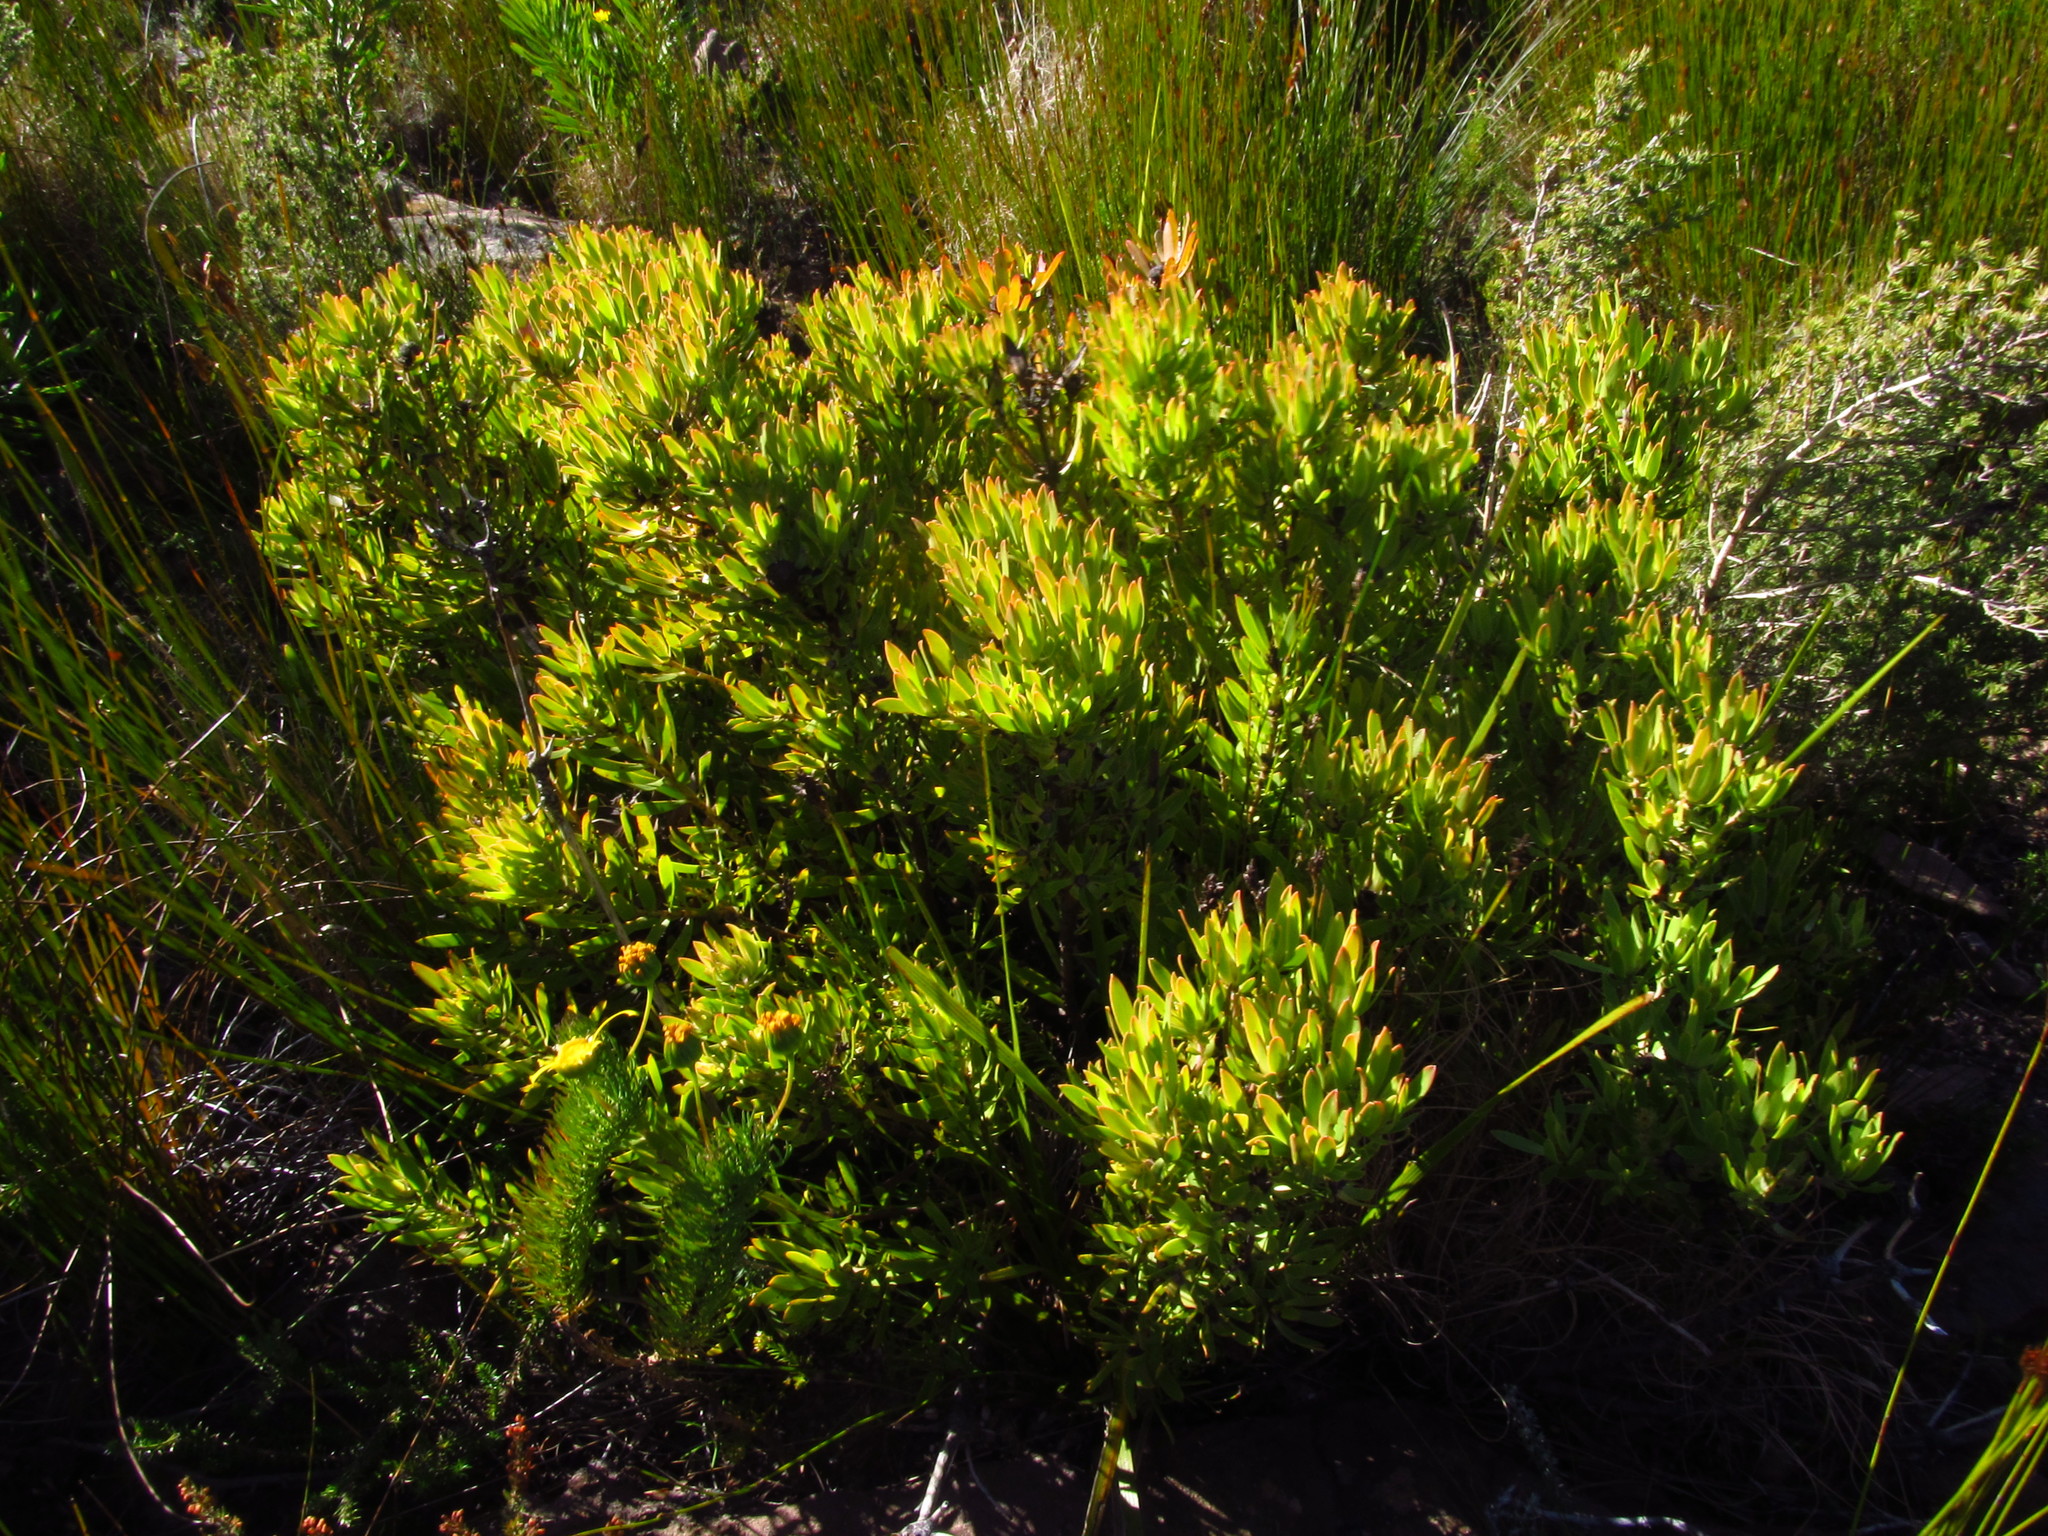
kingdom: Plantae
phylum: Tracheophyta
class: Magnoliopsida
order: Proteales
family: Proteaceae
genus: Leucadendron
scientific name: Leucadendron spissifolium
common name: Spear-leaf conebush
